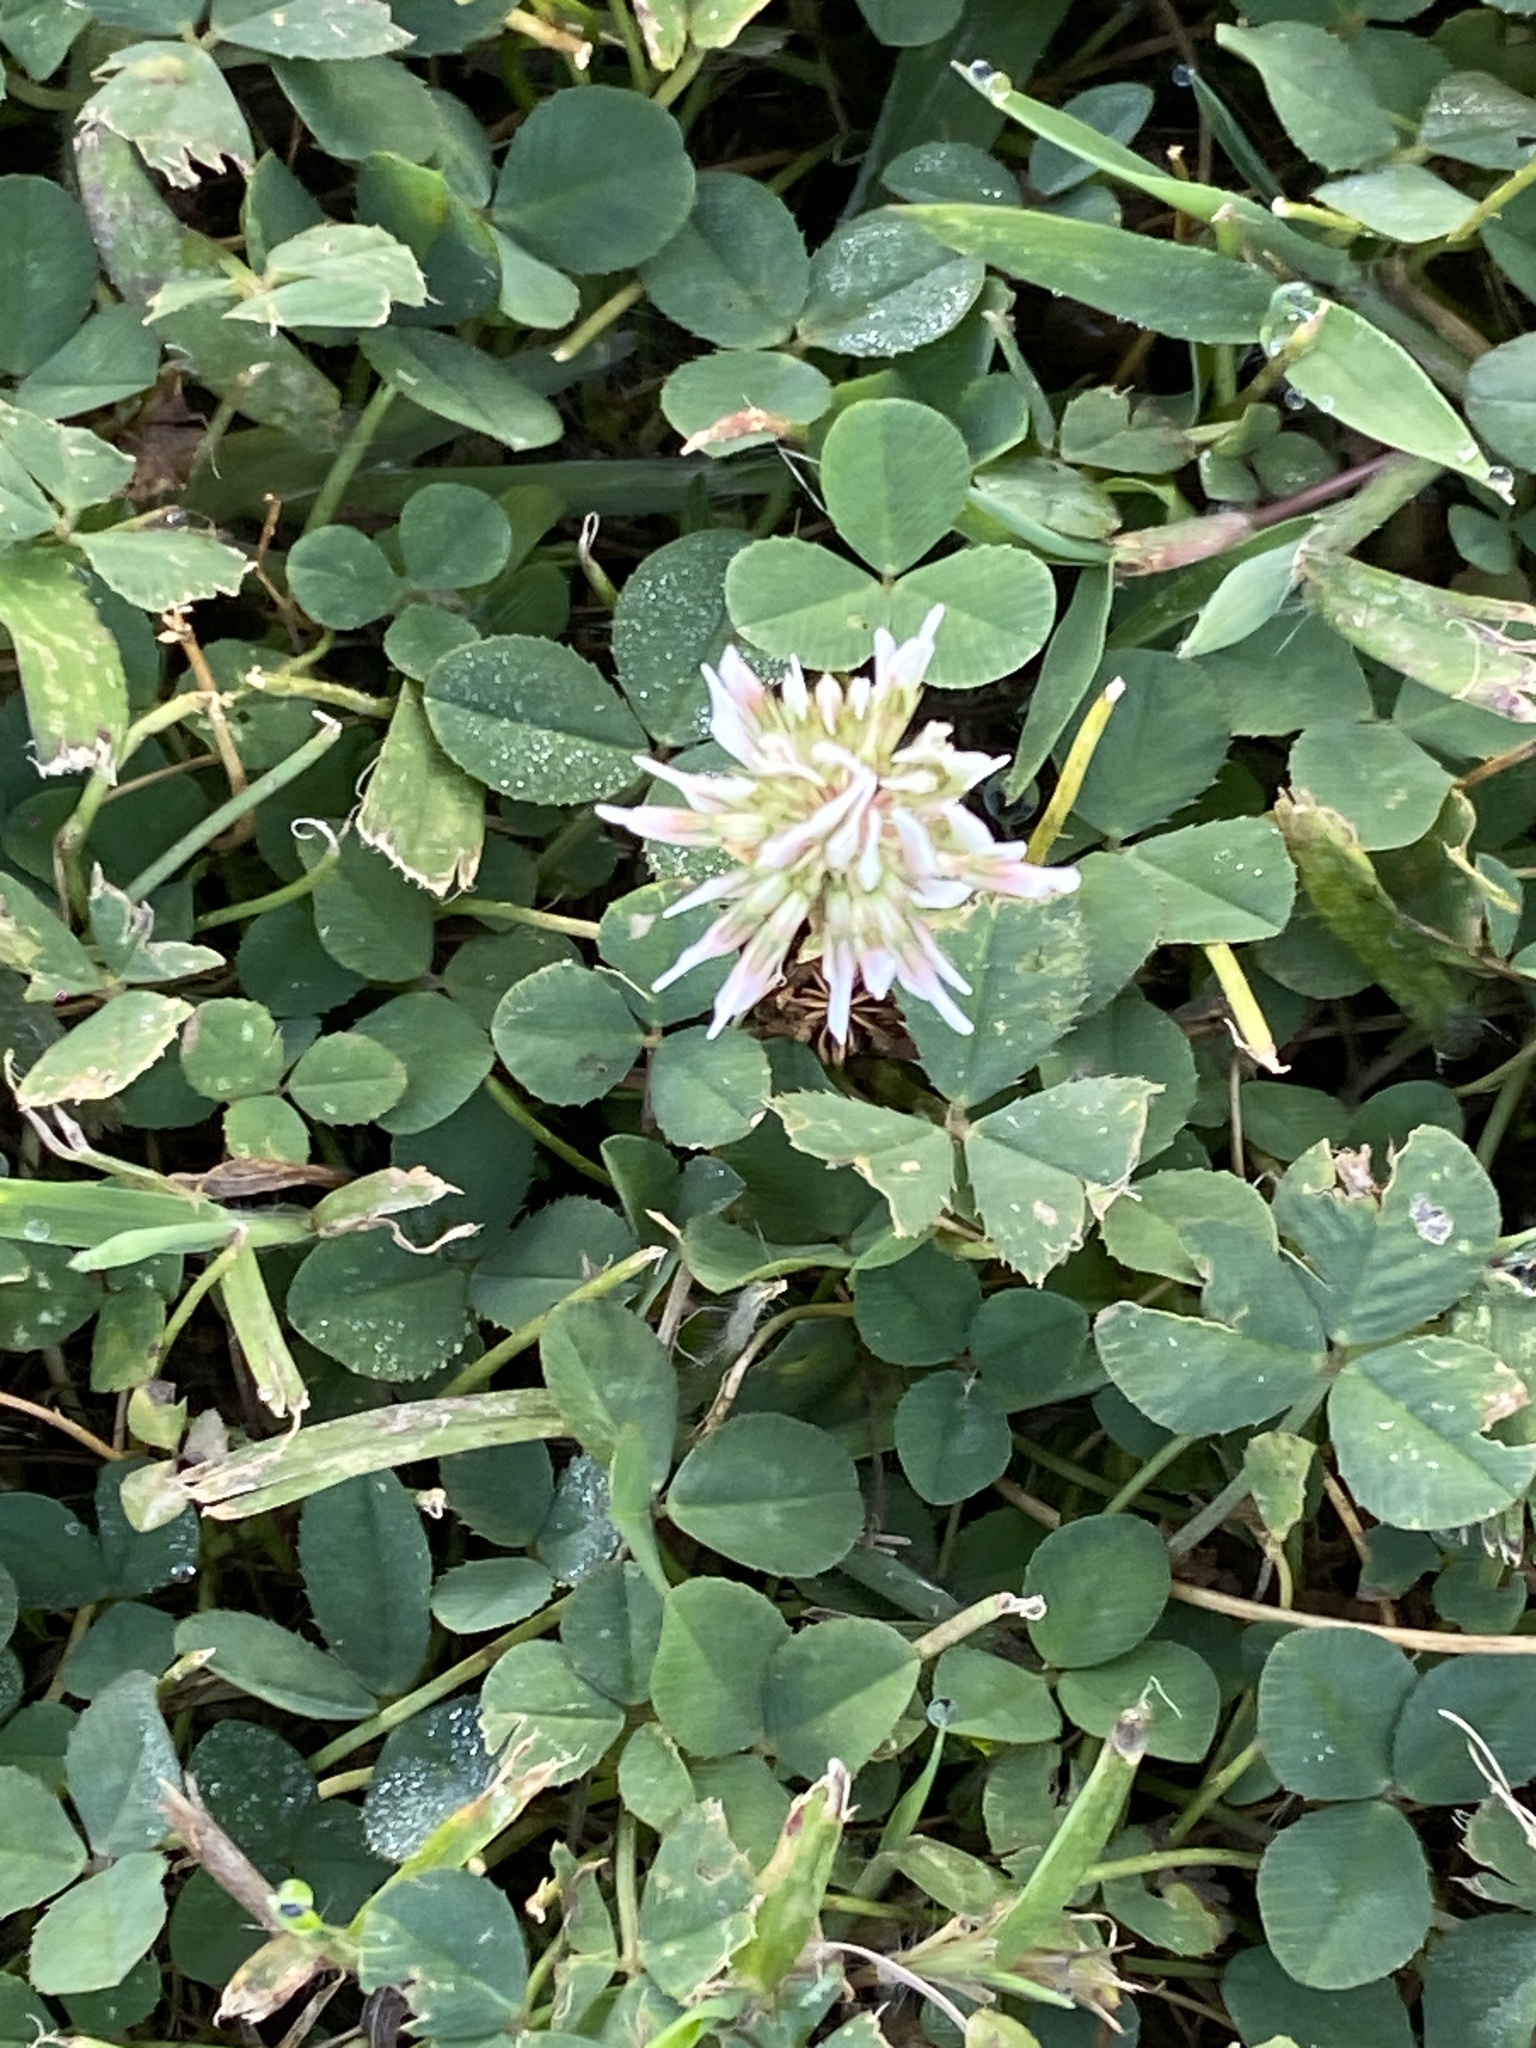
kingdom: Plantae
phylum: Tracheophyta
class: Magnoliopsida
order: Fabales
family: Fabaceae
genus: Trifolium
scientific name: Trifolium repens
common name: White clover
